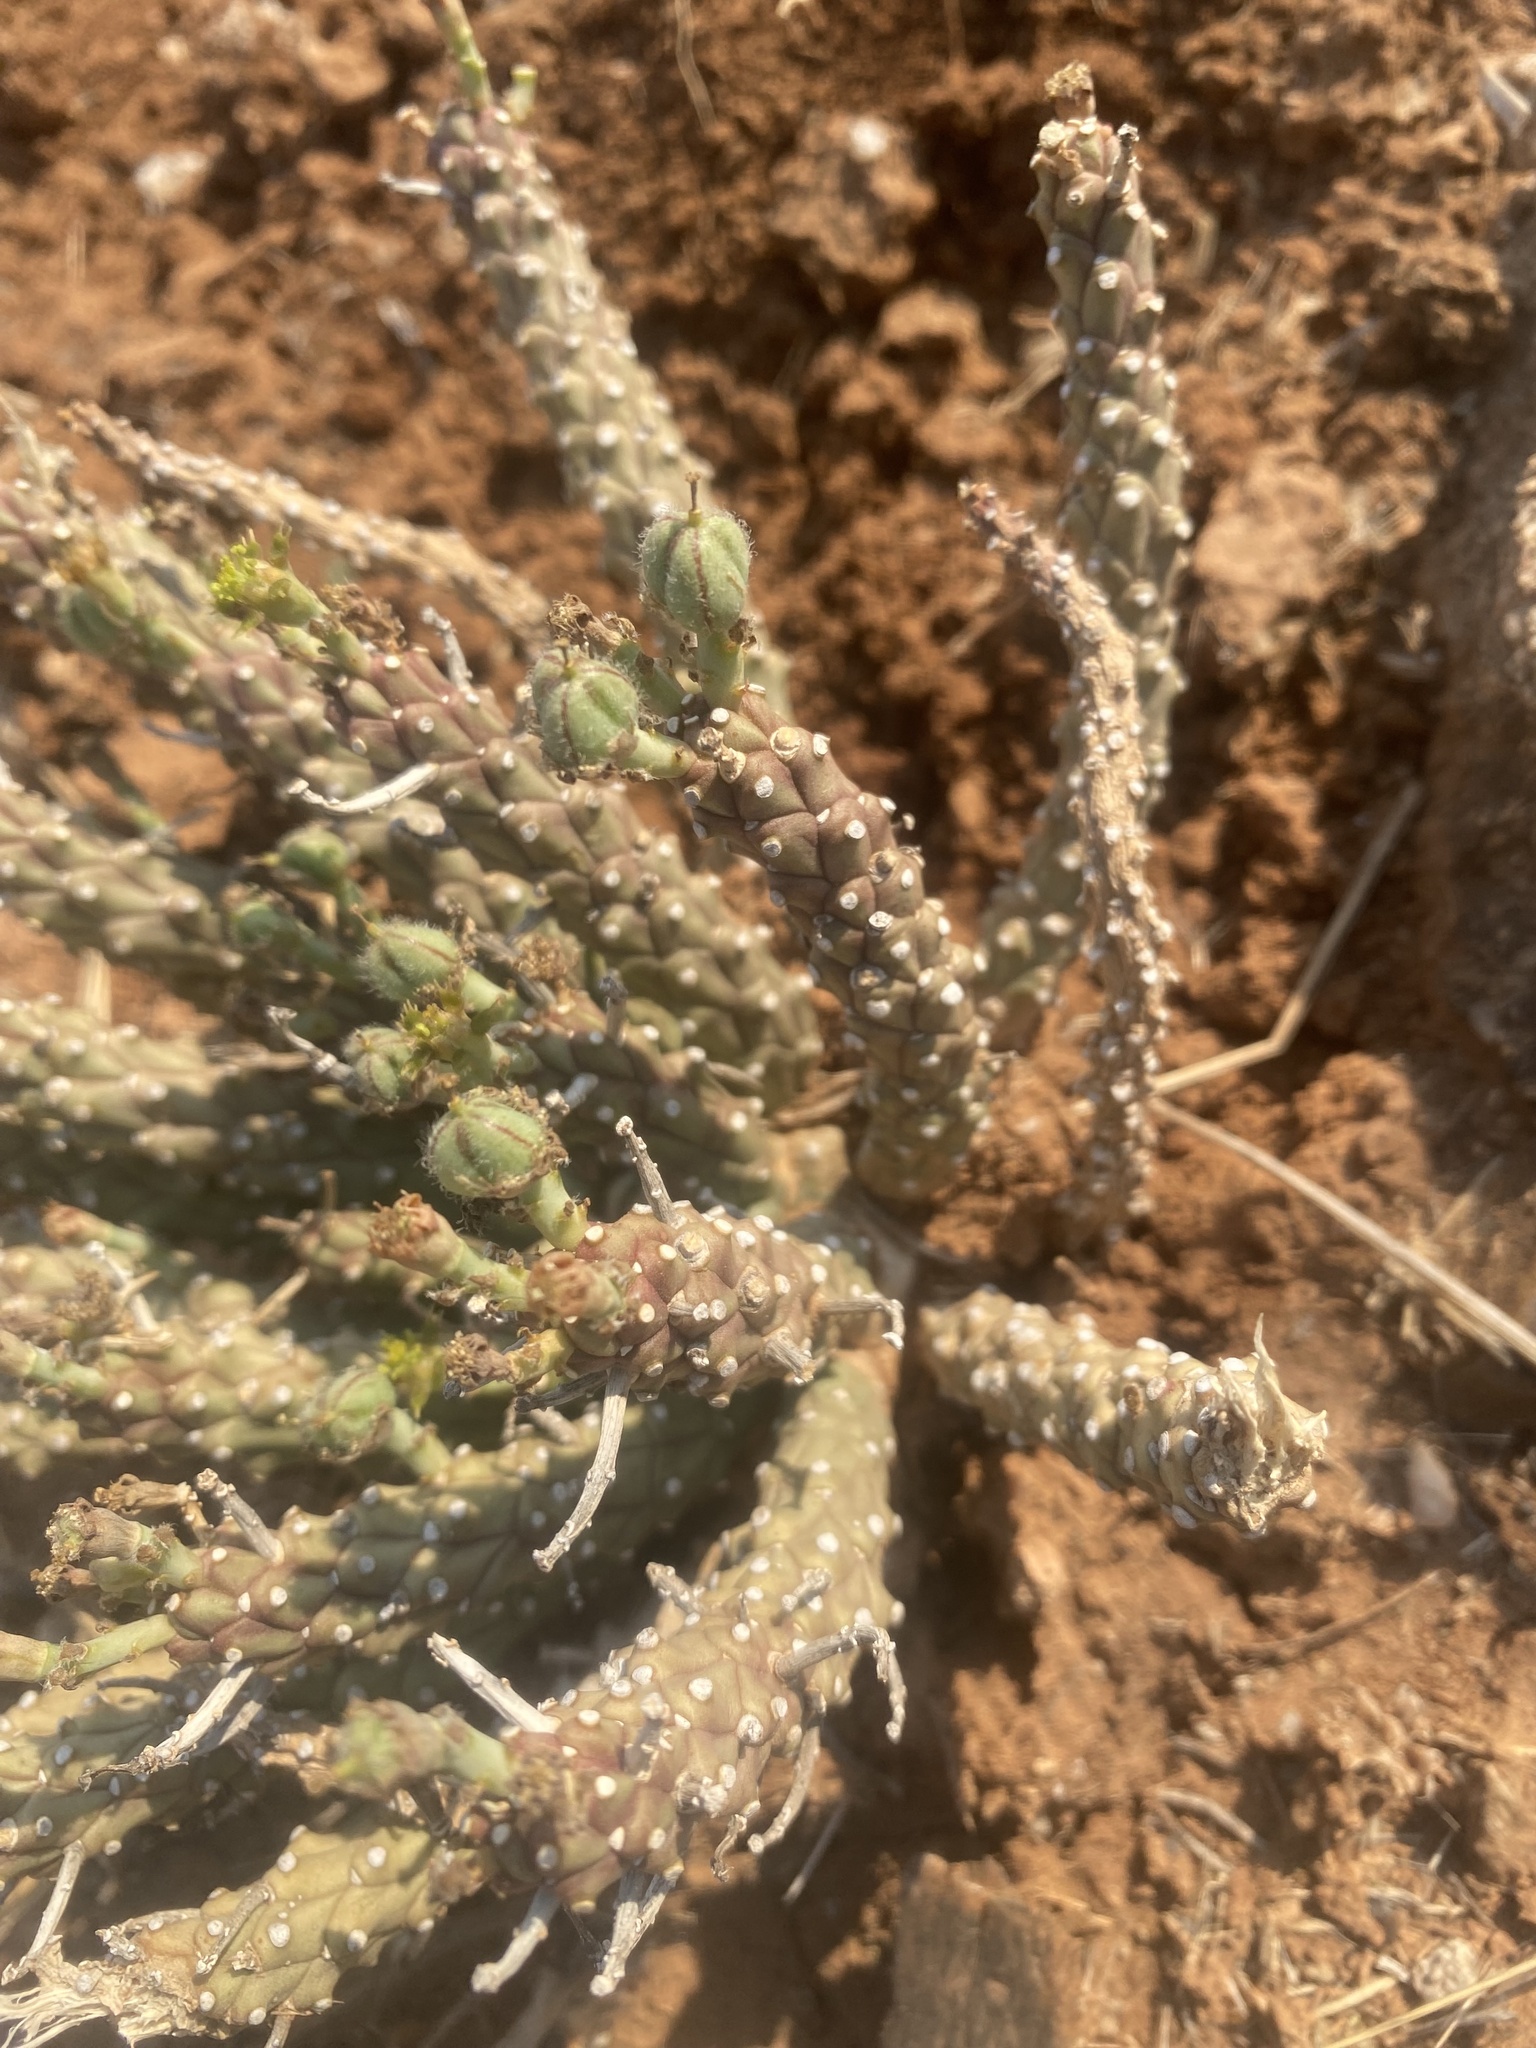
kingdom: Plantae
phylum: Tracheophyta
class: Magnoliopsida
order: Malpighiales
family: Euphorbiaceae
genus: Euphorbia
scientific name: Euphorbia maleolens
